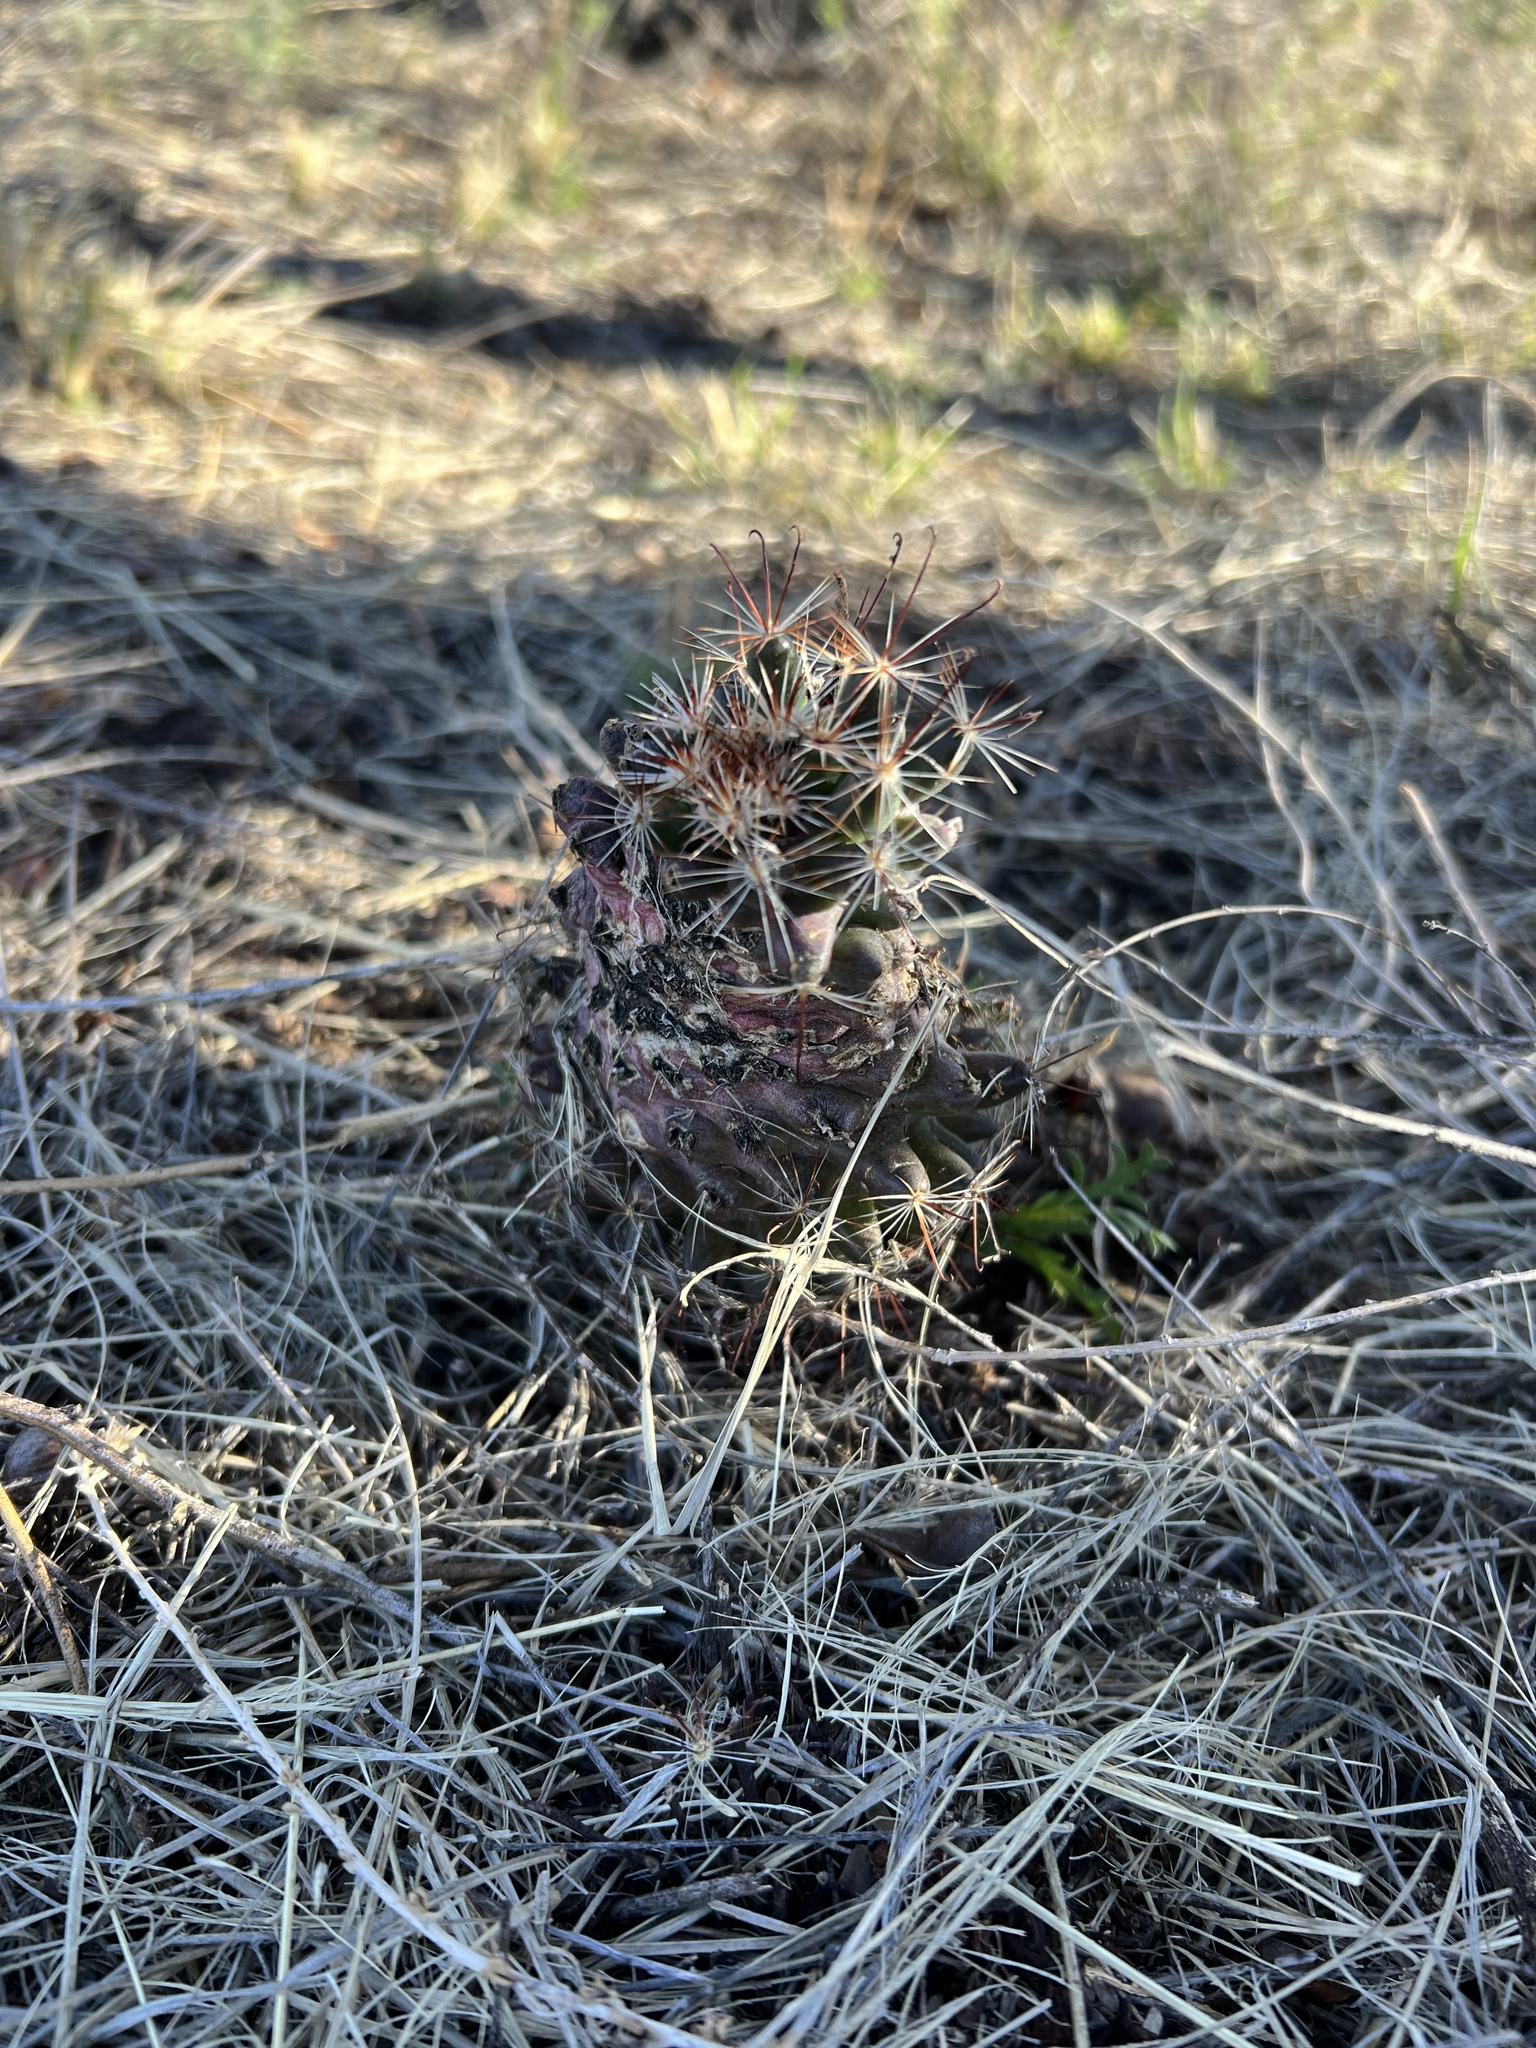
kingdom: Plantae
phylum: Tracheophyta
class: Magnoliopsida
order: Caryophyllales
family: Cactaceae
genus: Cochemiea
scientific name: Cochemiea wrightii
